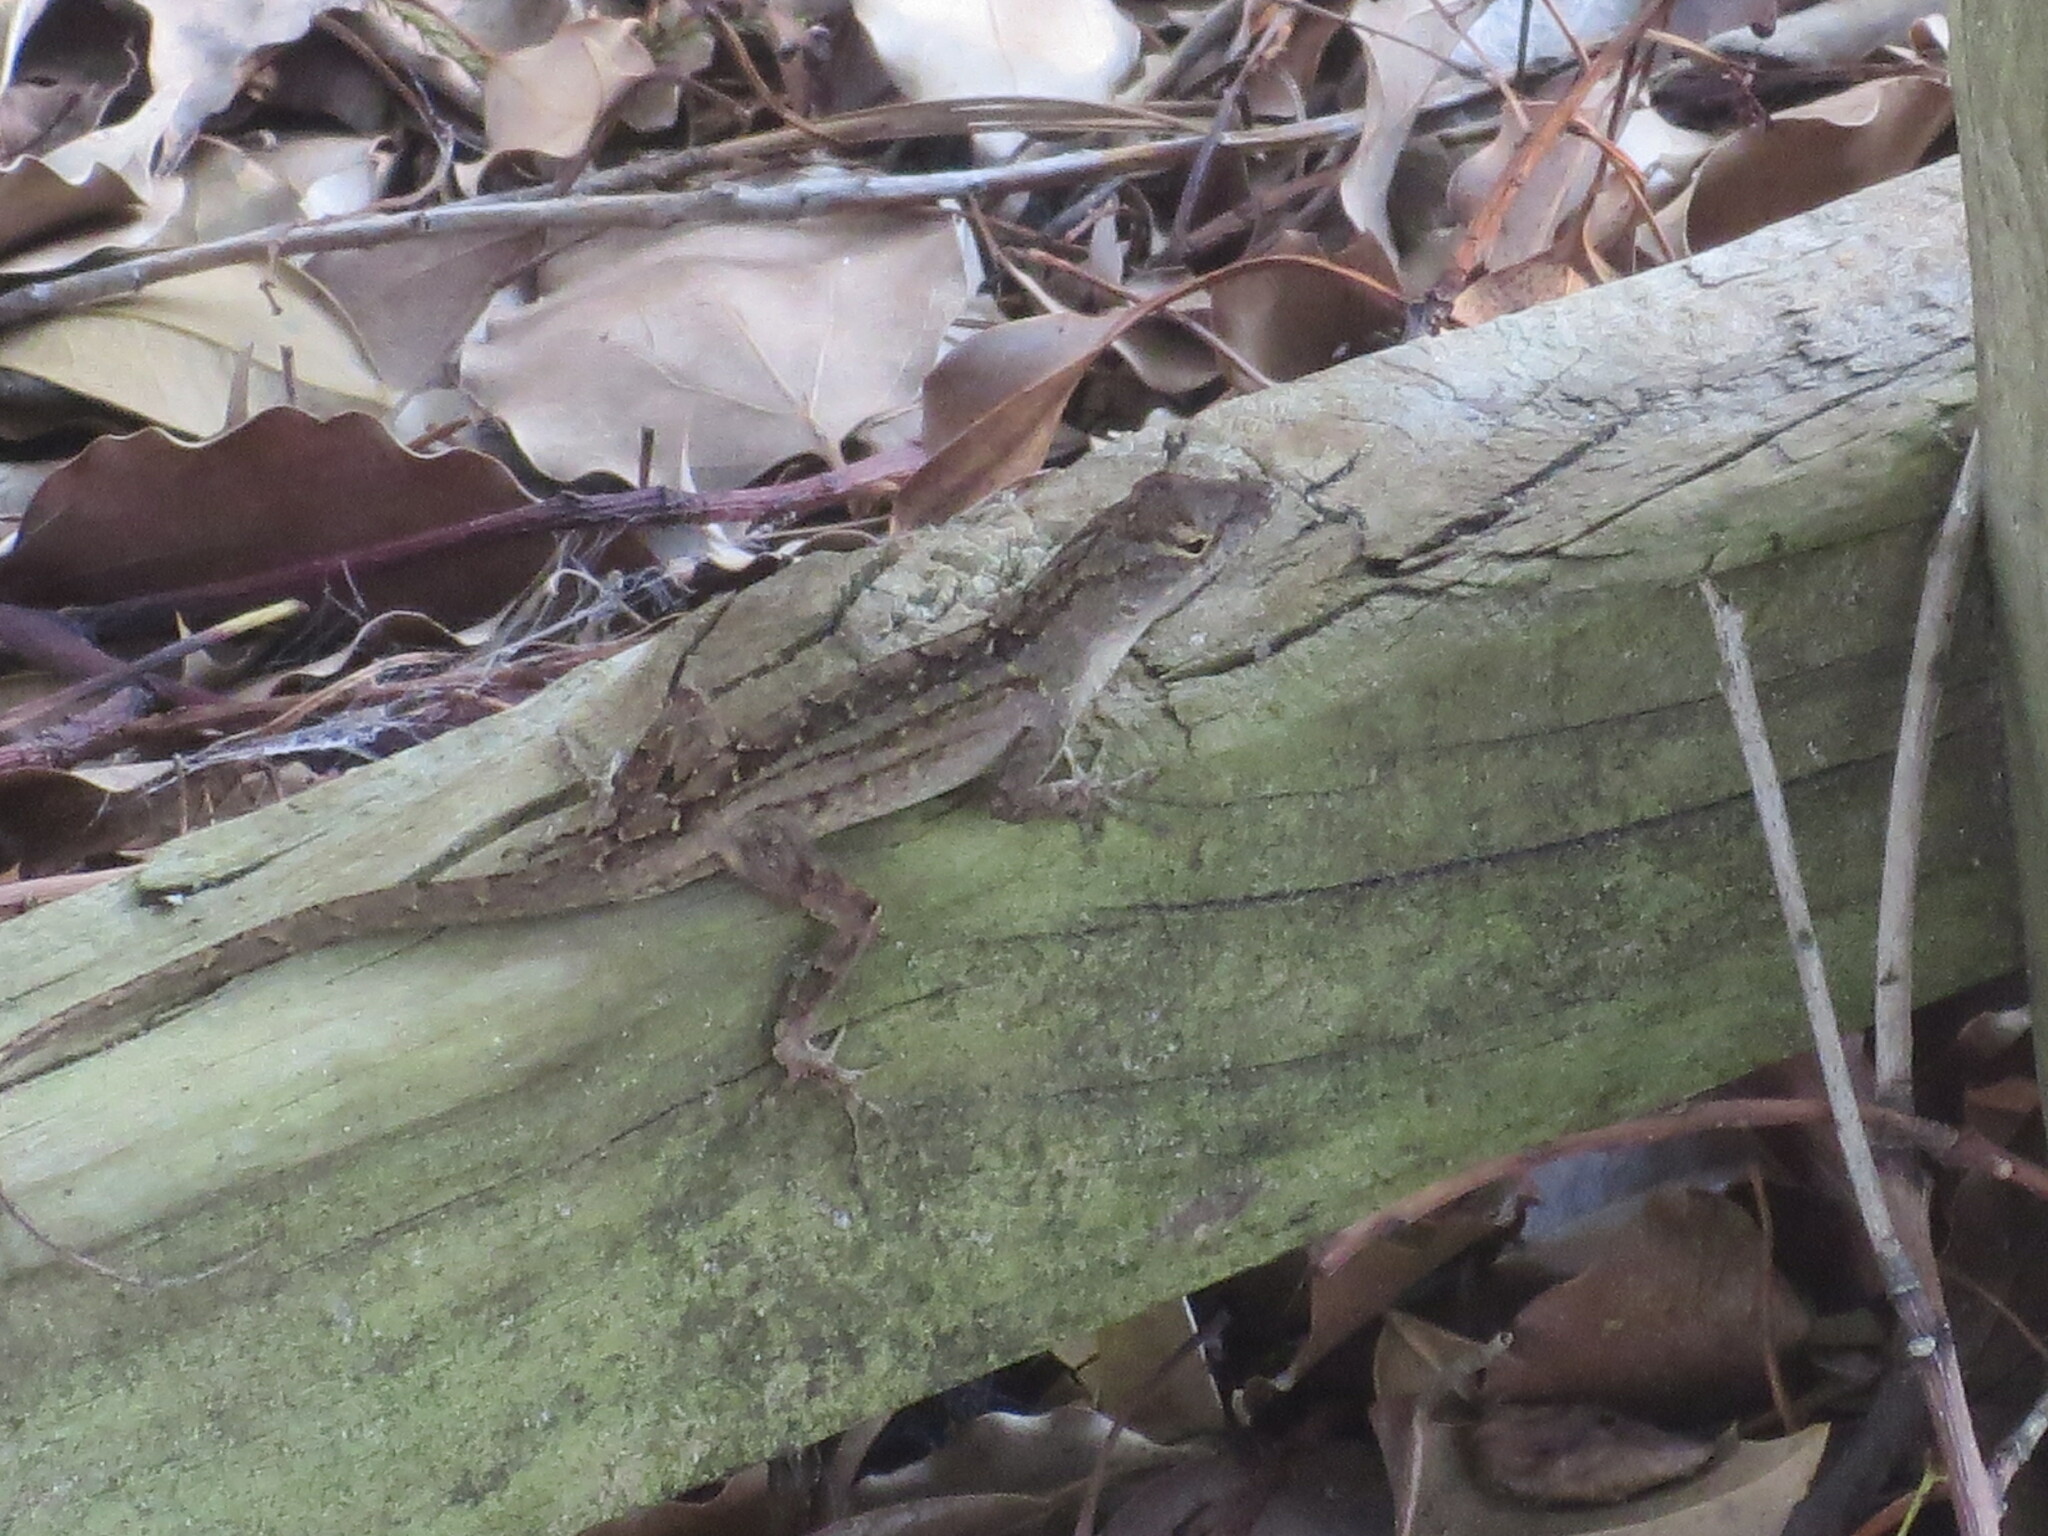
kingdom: Animalia
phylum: Chordata
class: Squamata
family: Dactyloidae
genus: Anolis
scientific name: Anolis sagrei
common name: Brown anole
